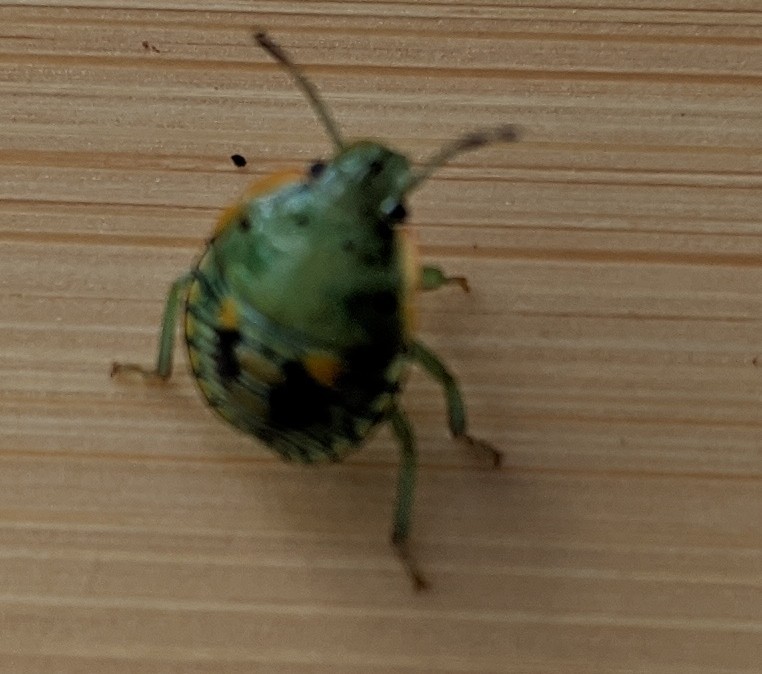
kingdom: Animalia
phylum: Arthropoda
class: Insecta
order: Hemiptera
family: Pentatomidae
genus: Chinavia
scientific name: Chinavia hilaris
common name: Green stink bug
